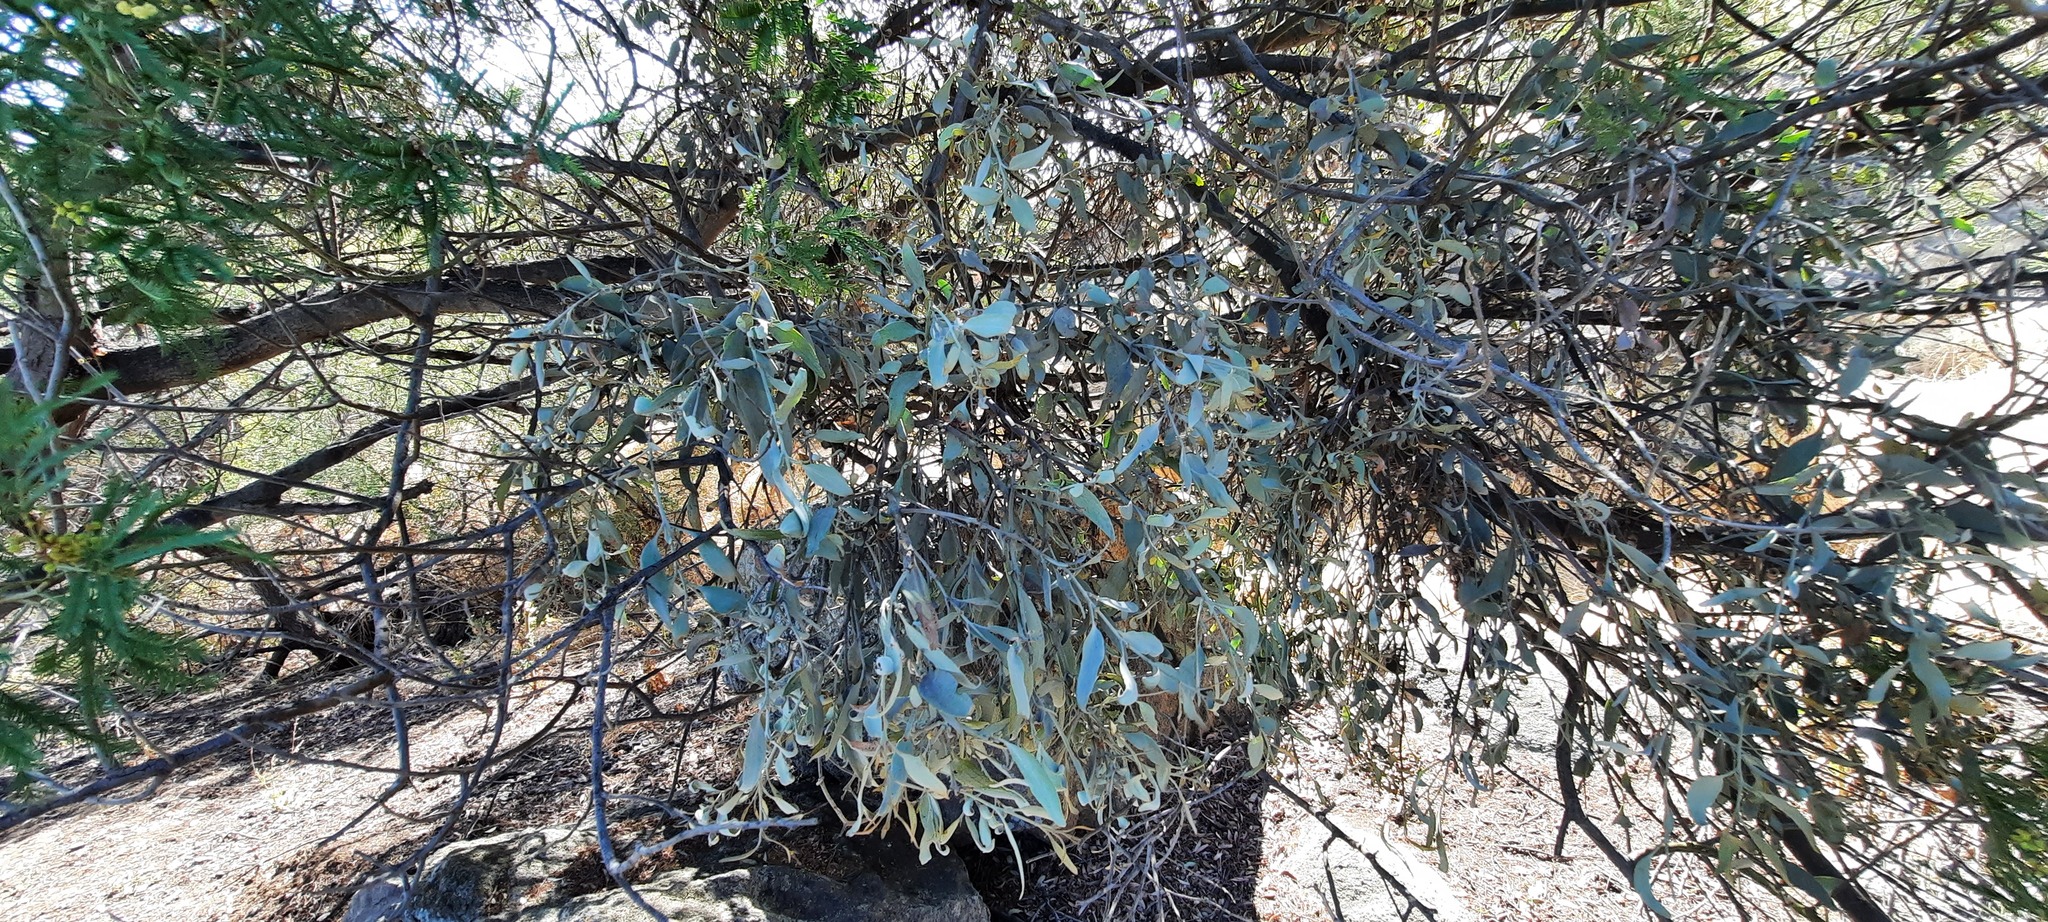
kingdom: Plantae
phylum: Tracheophyta
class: Magnoliopsida
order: Santalales
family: Loranthaceae
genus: Amyema
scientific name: Amyema quandang
